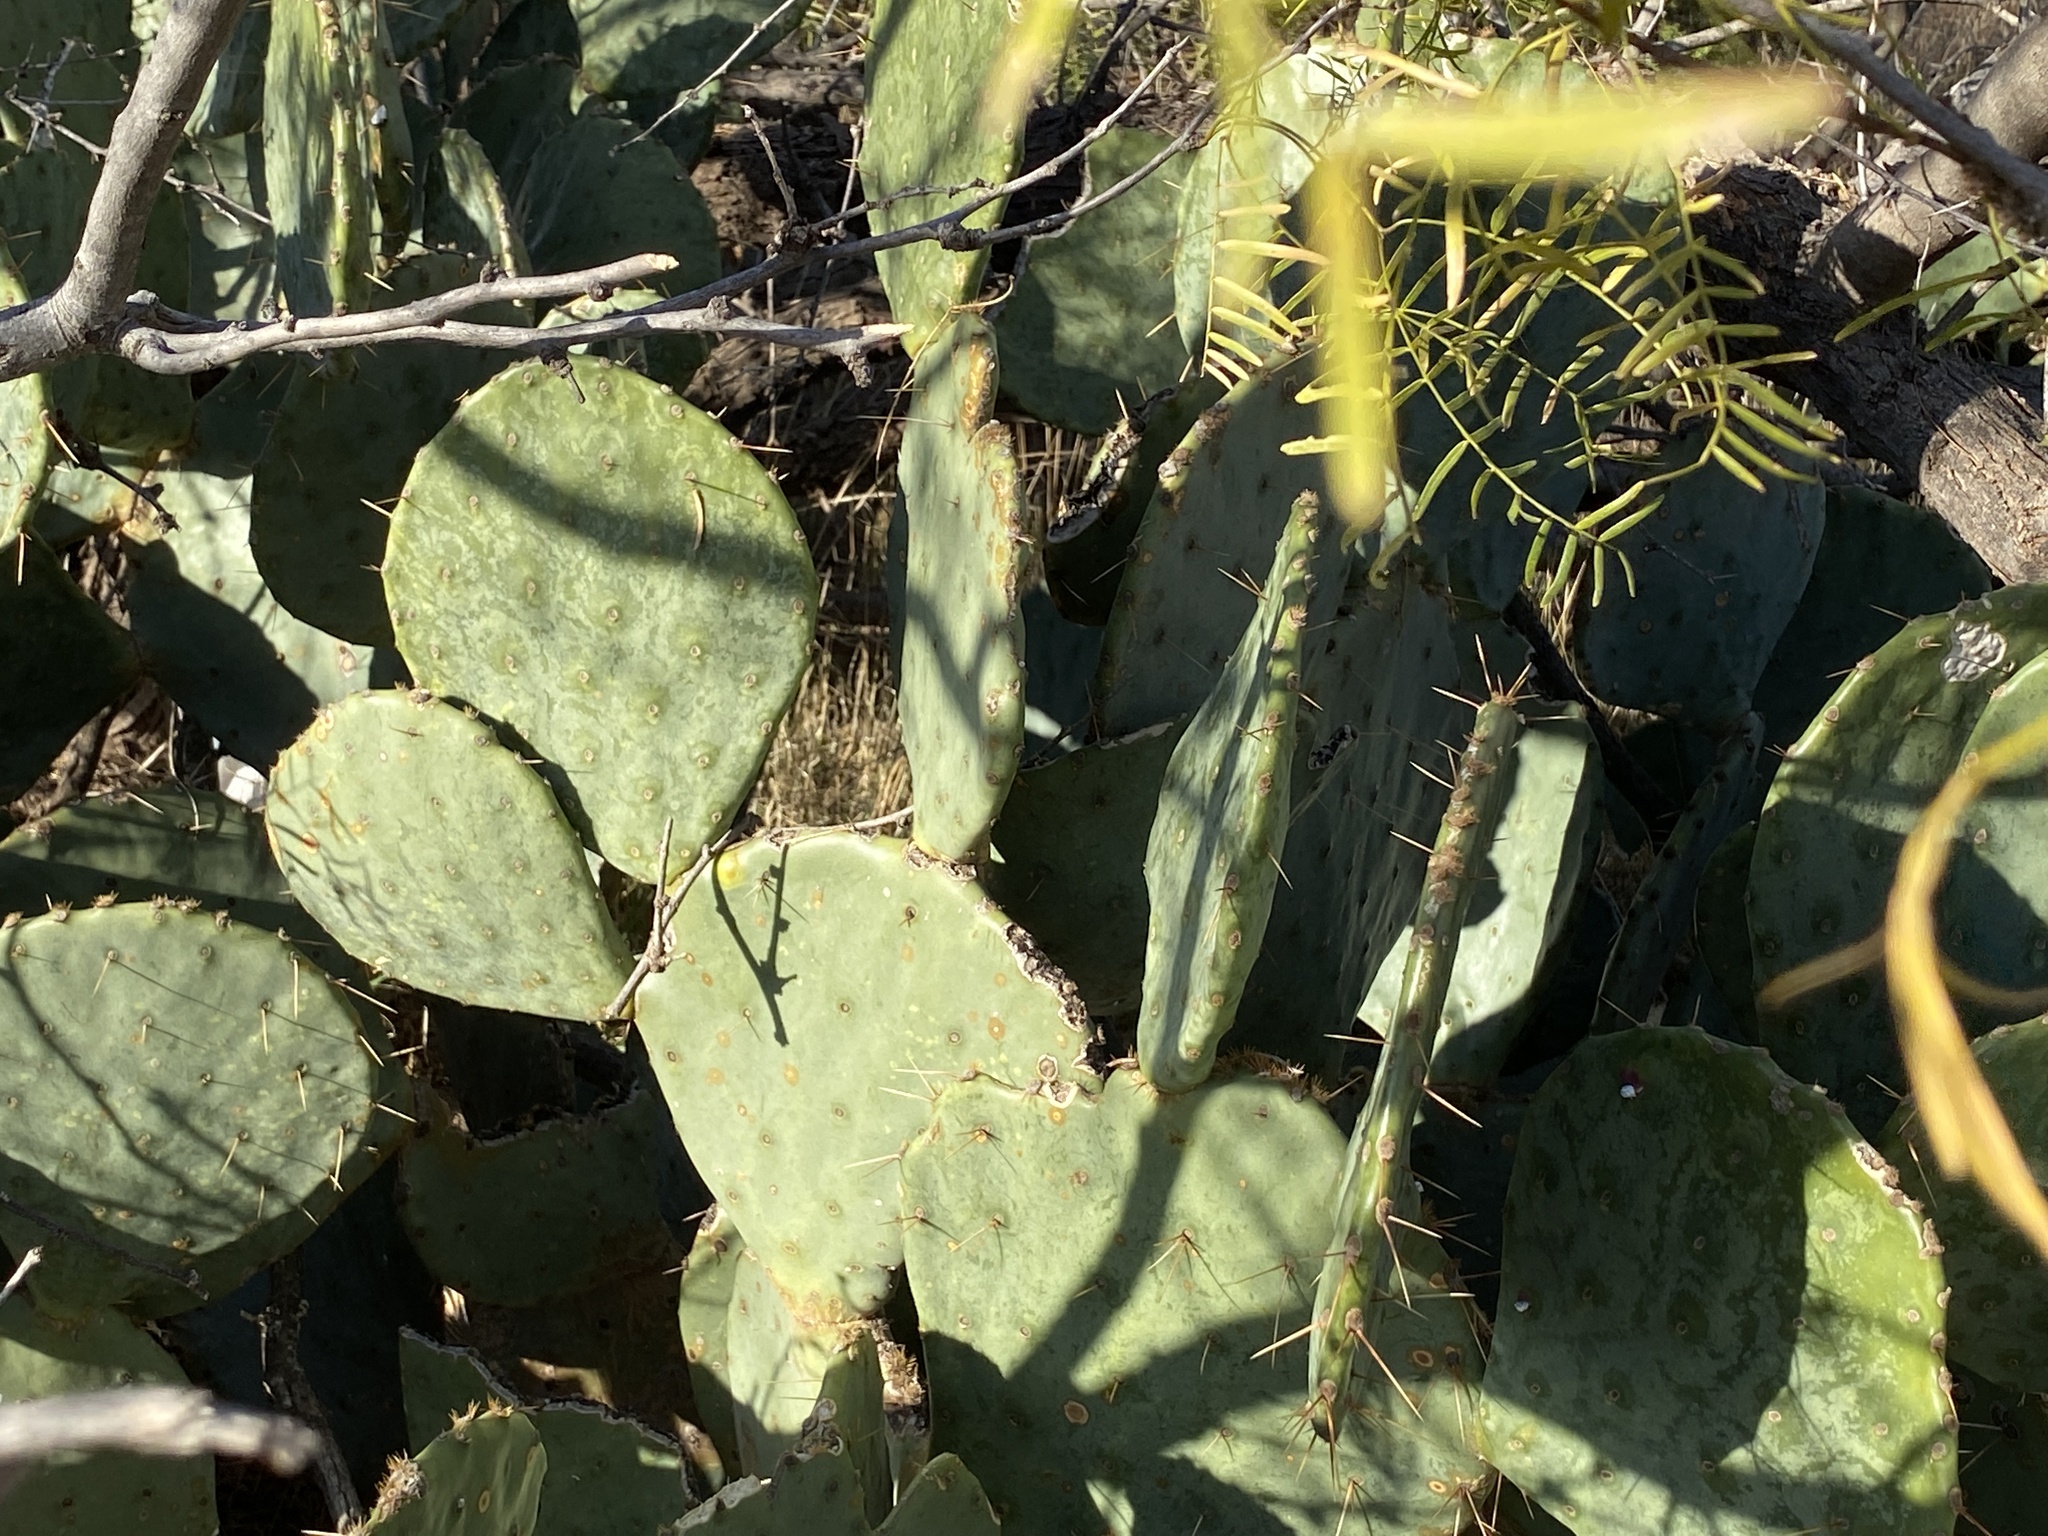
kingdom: Plantae
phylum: Tracheophyta
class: Magnoliopsida
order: Caryophyllales
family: Cactaceae
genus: Opuntia
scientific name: Opuntia engelmannii
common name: Cactus-apple
